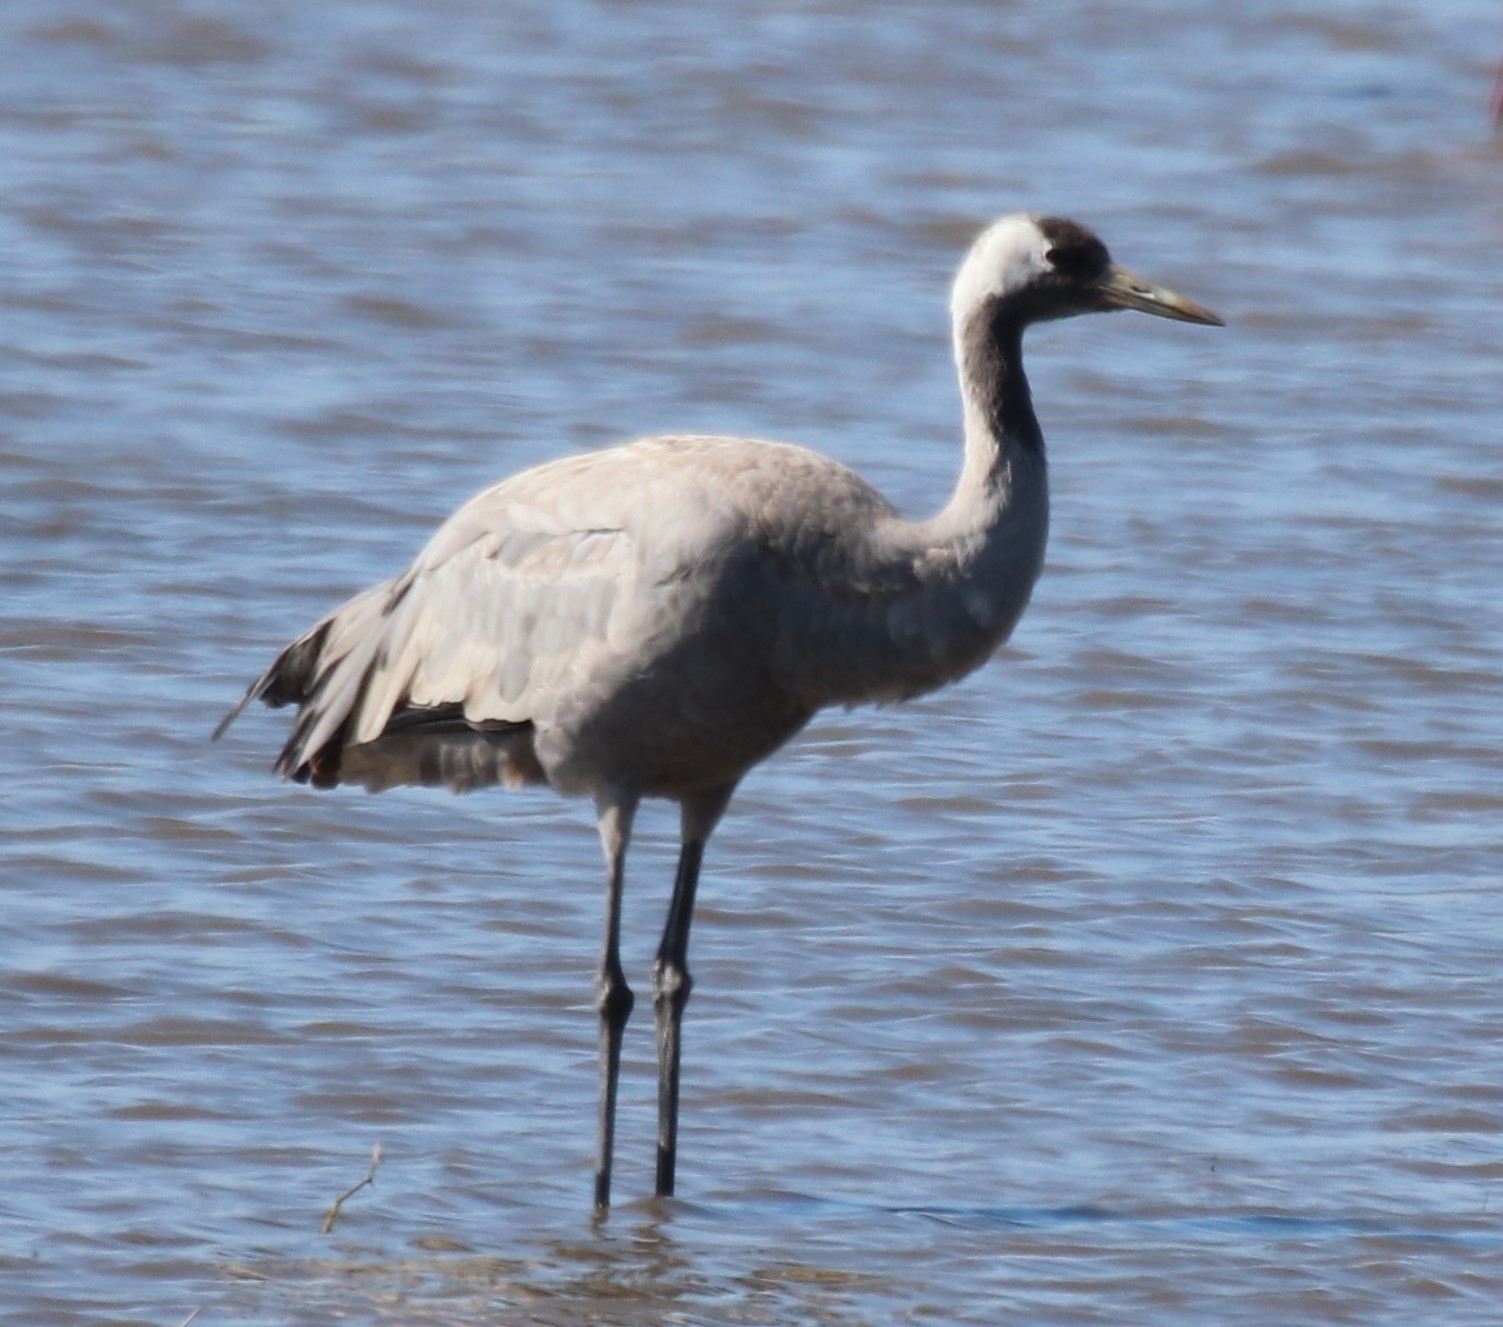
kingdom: Animalia
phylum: Chordata
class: Aves
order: Gruiformes
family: Gruidae
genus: Grus
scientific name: Grus grus
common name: Common crane
